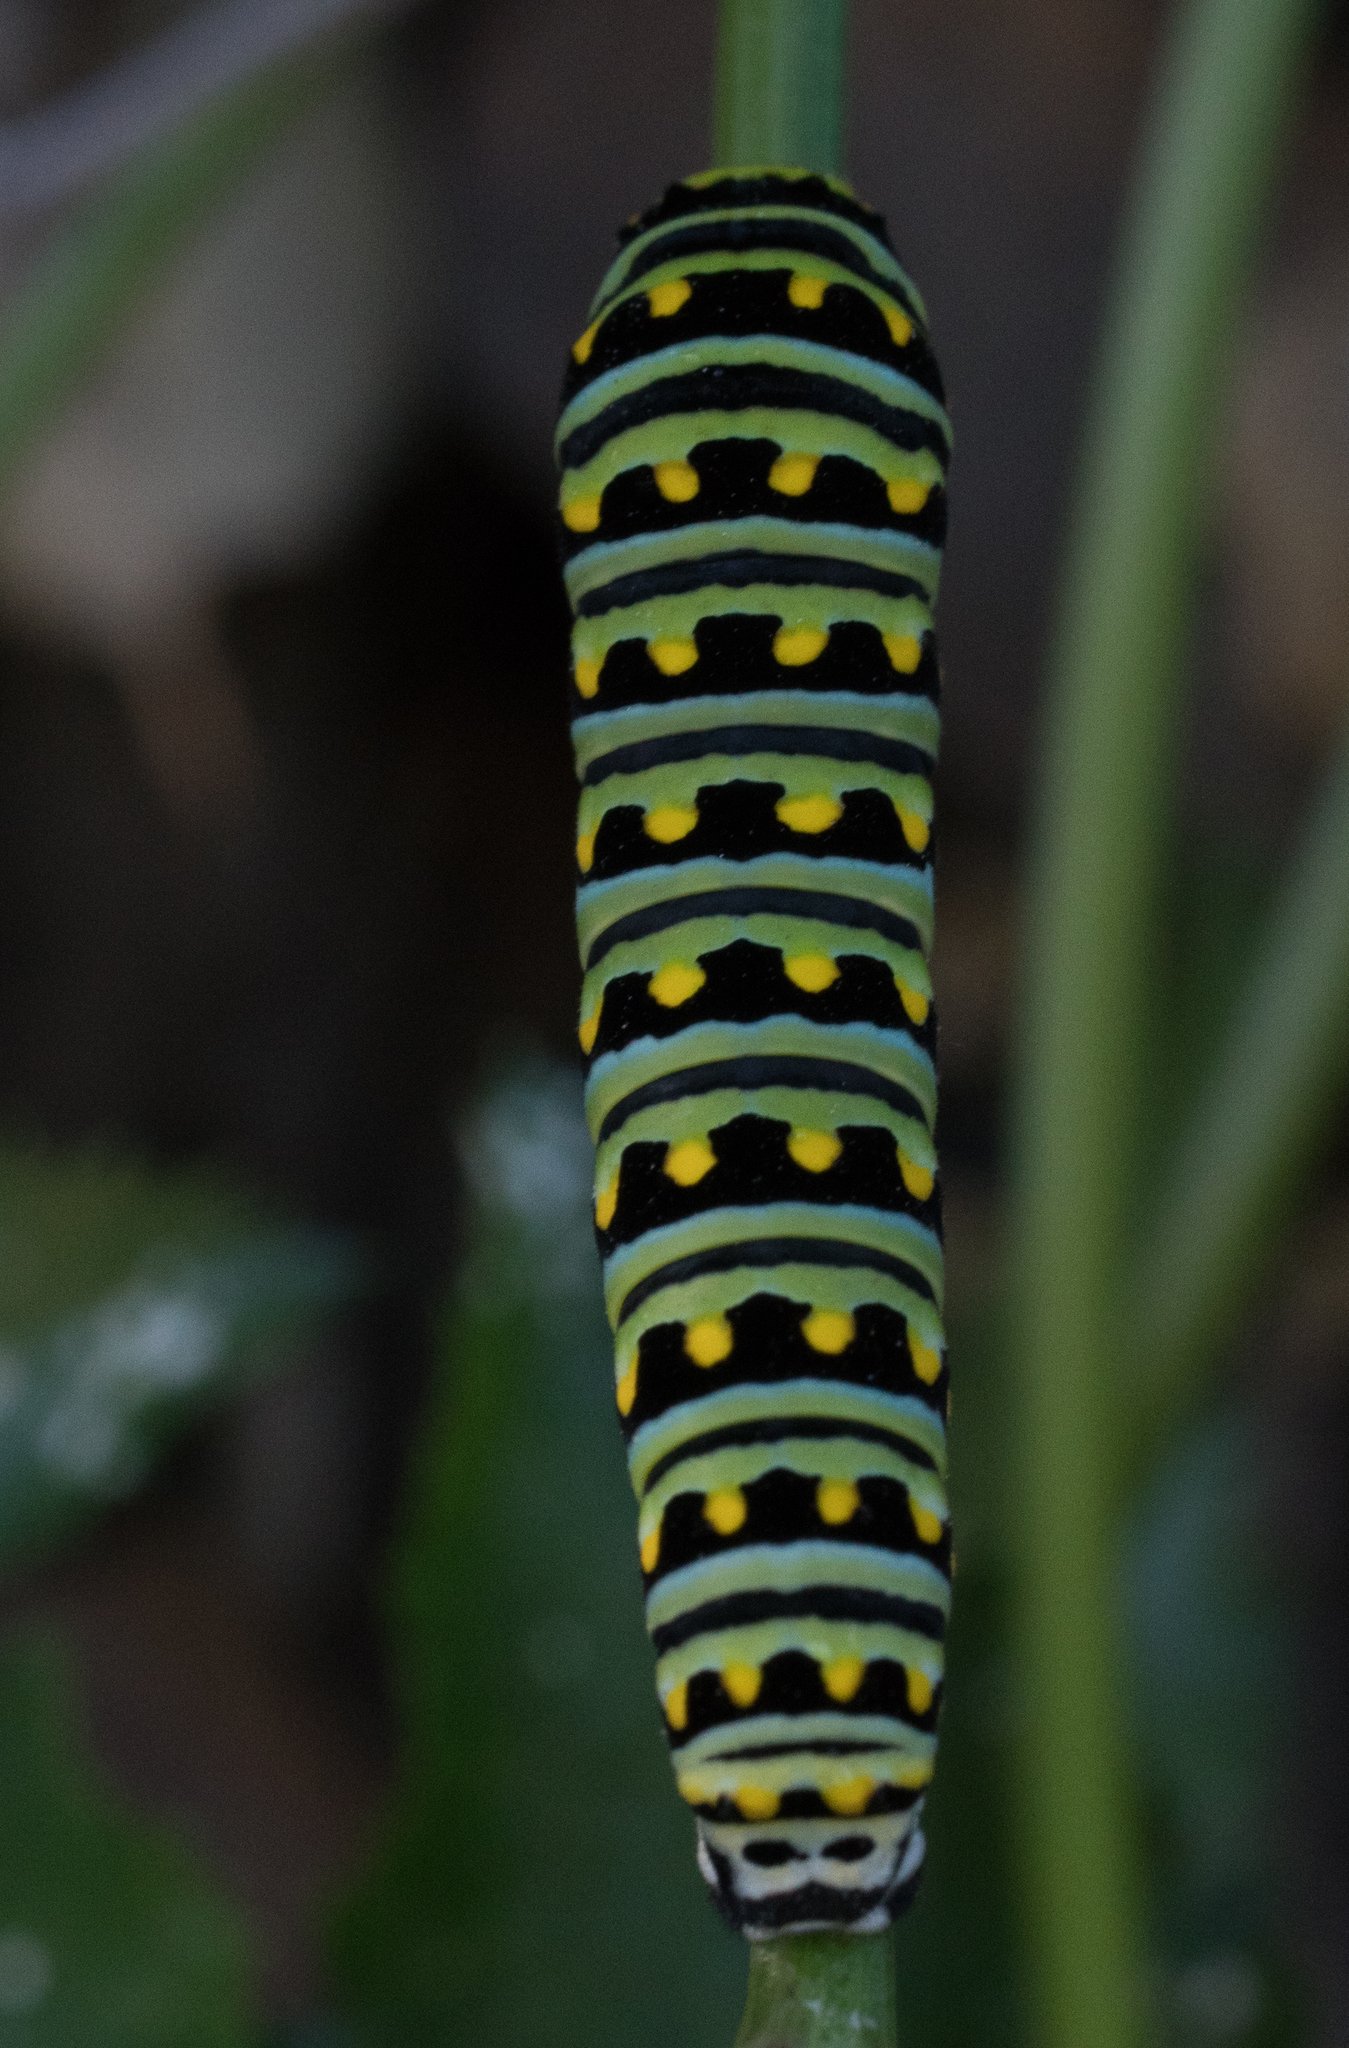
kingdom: Animalia
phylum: Arthropoda
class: Insecta
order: Lepidoptera
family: Papilionidae
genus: Papilio
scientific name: Papilio zelicaon
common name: Anise swallowtail
